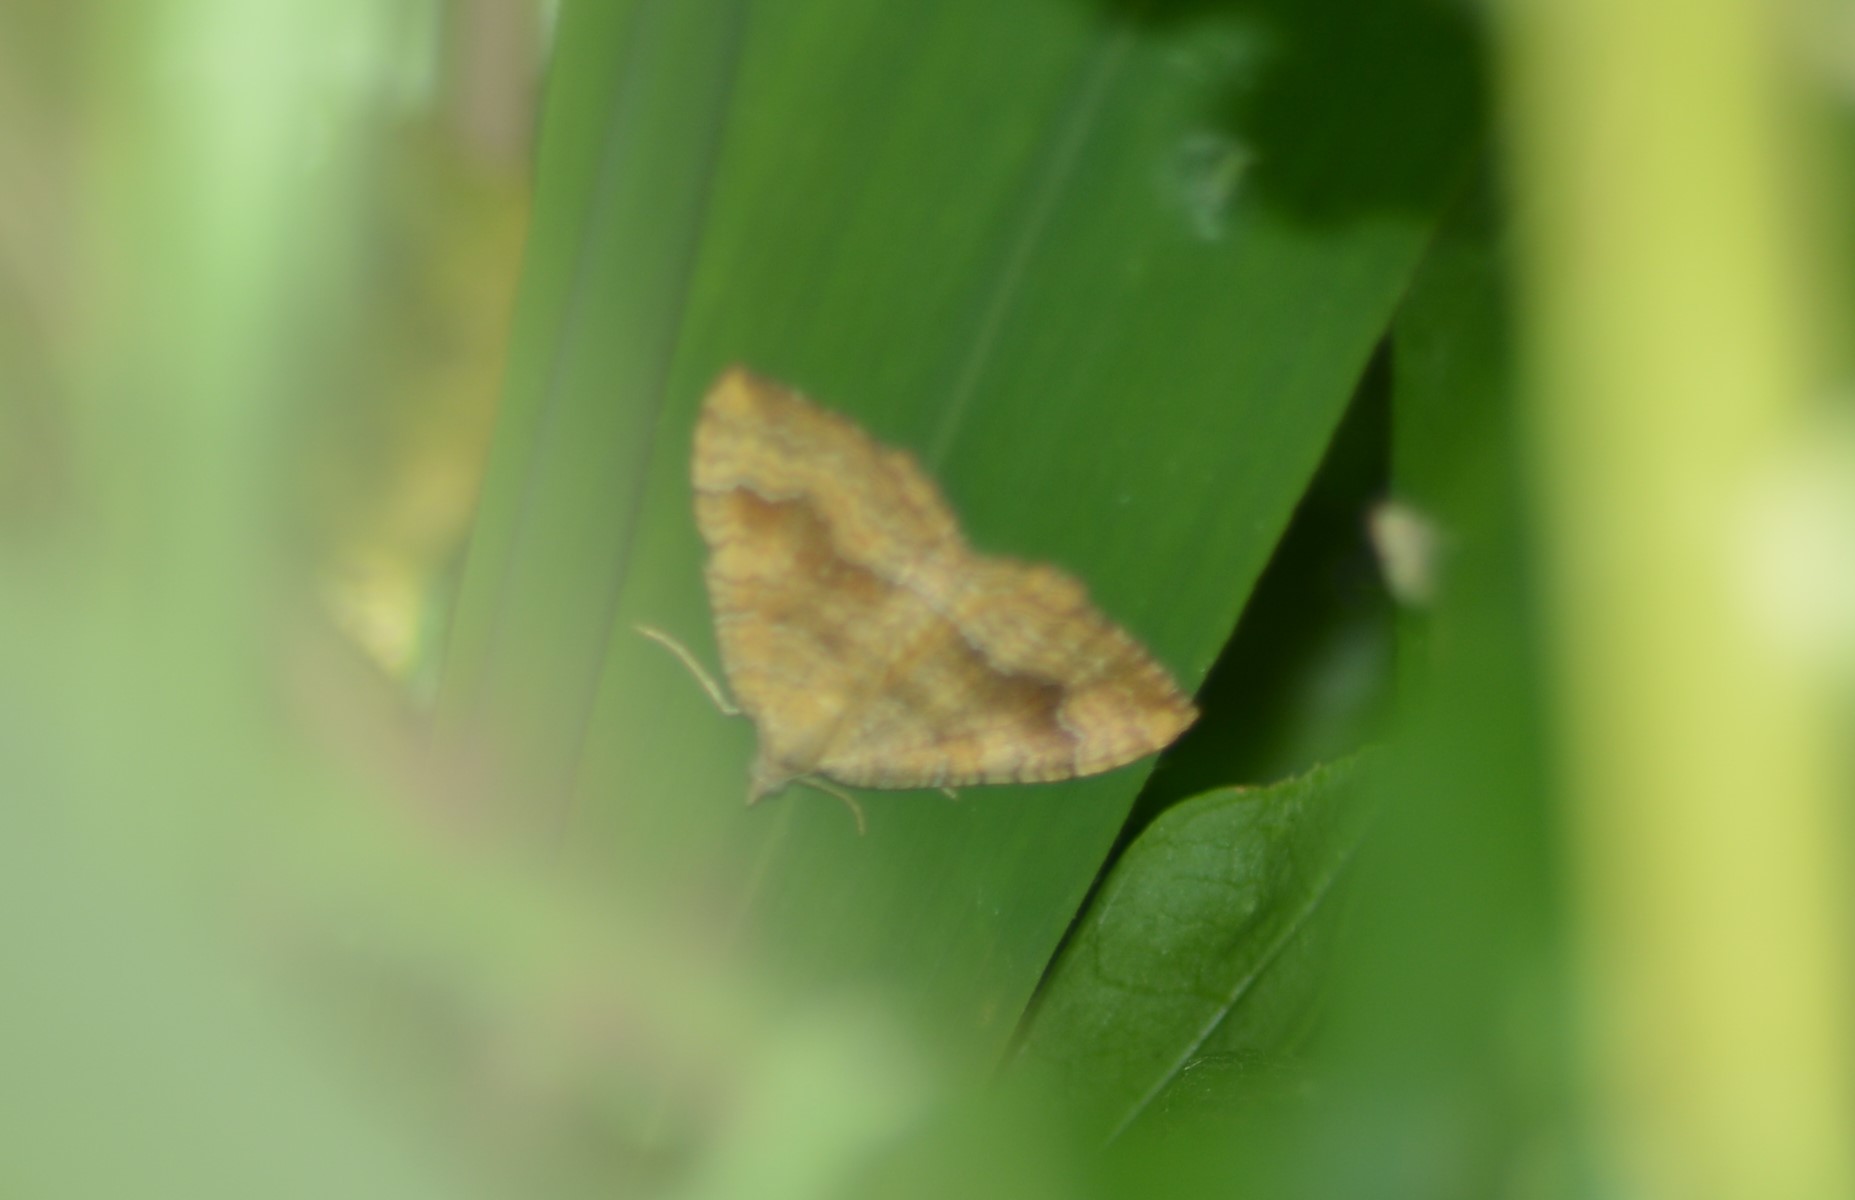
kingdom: Animalia
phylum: Arthropoda
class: Insecta
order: Lepidoptera
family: Geometridae
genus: Camptogramma
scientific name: Camptogramma bilineata
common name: Yellow shell
